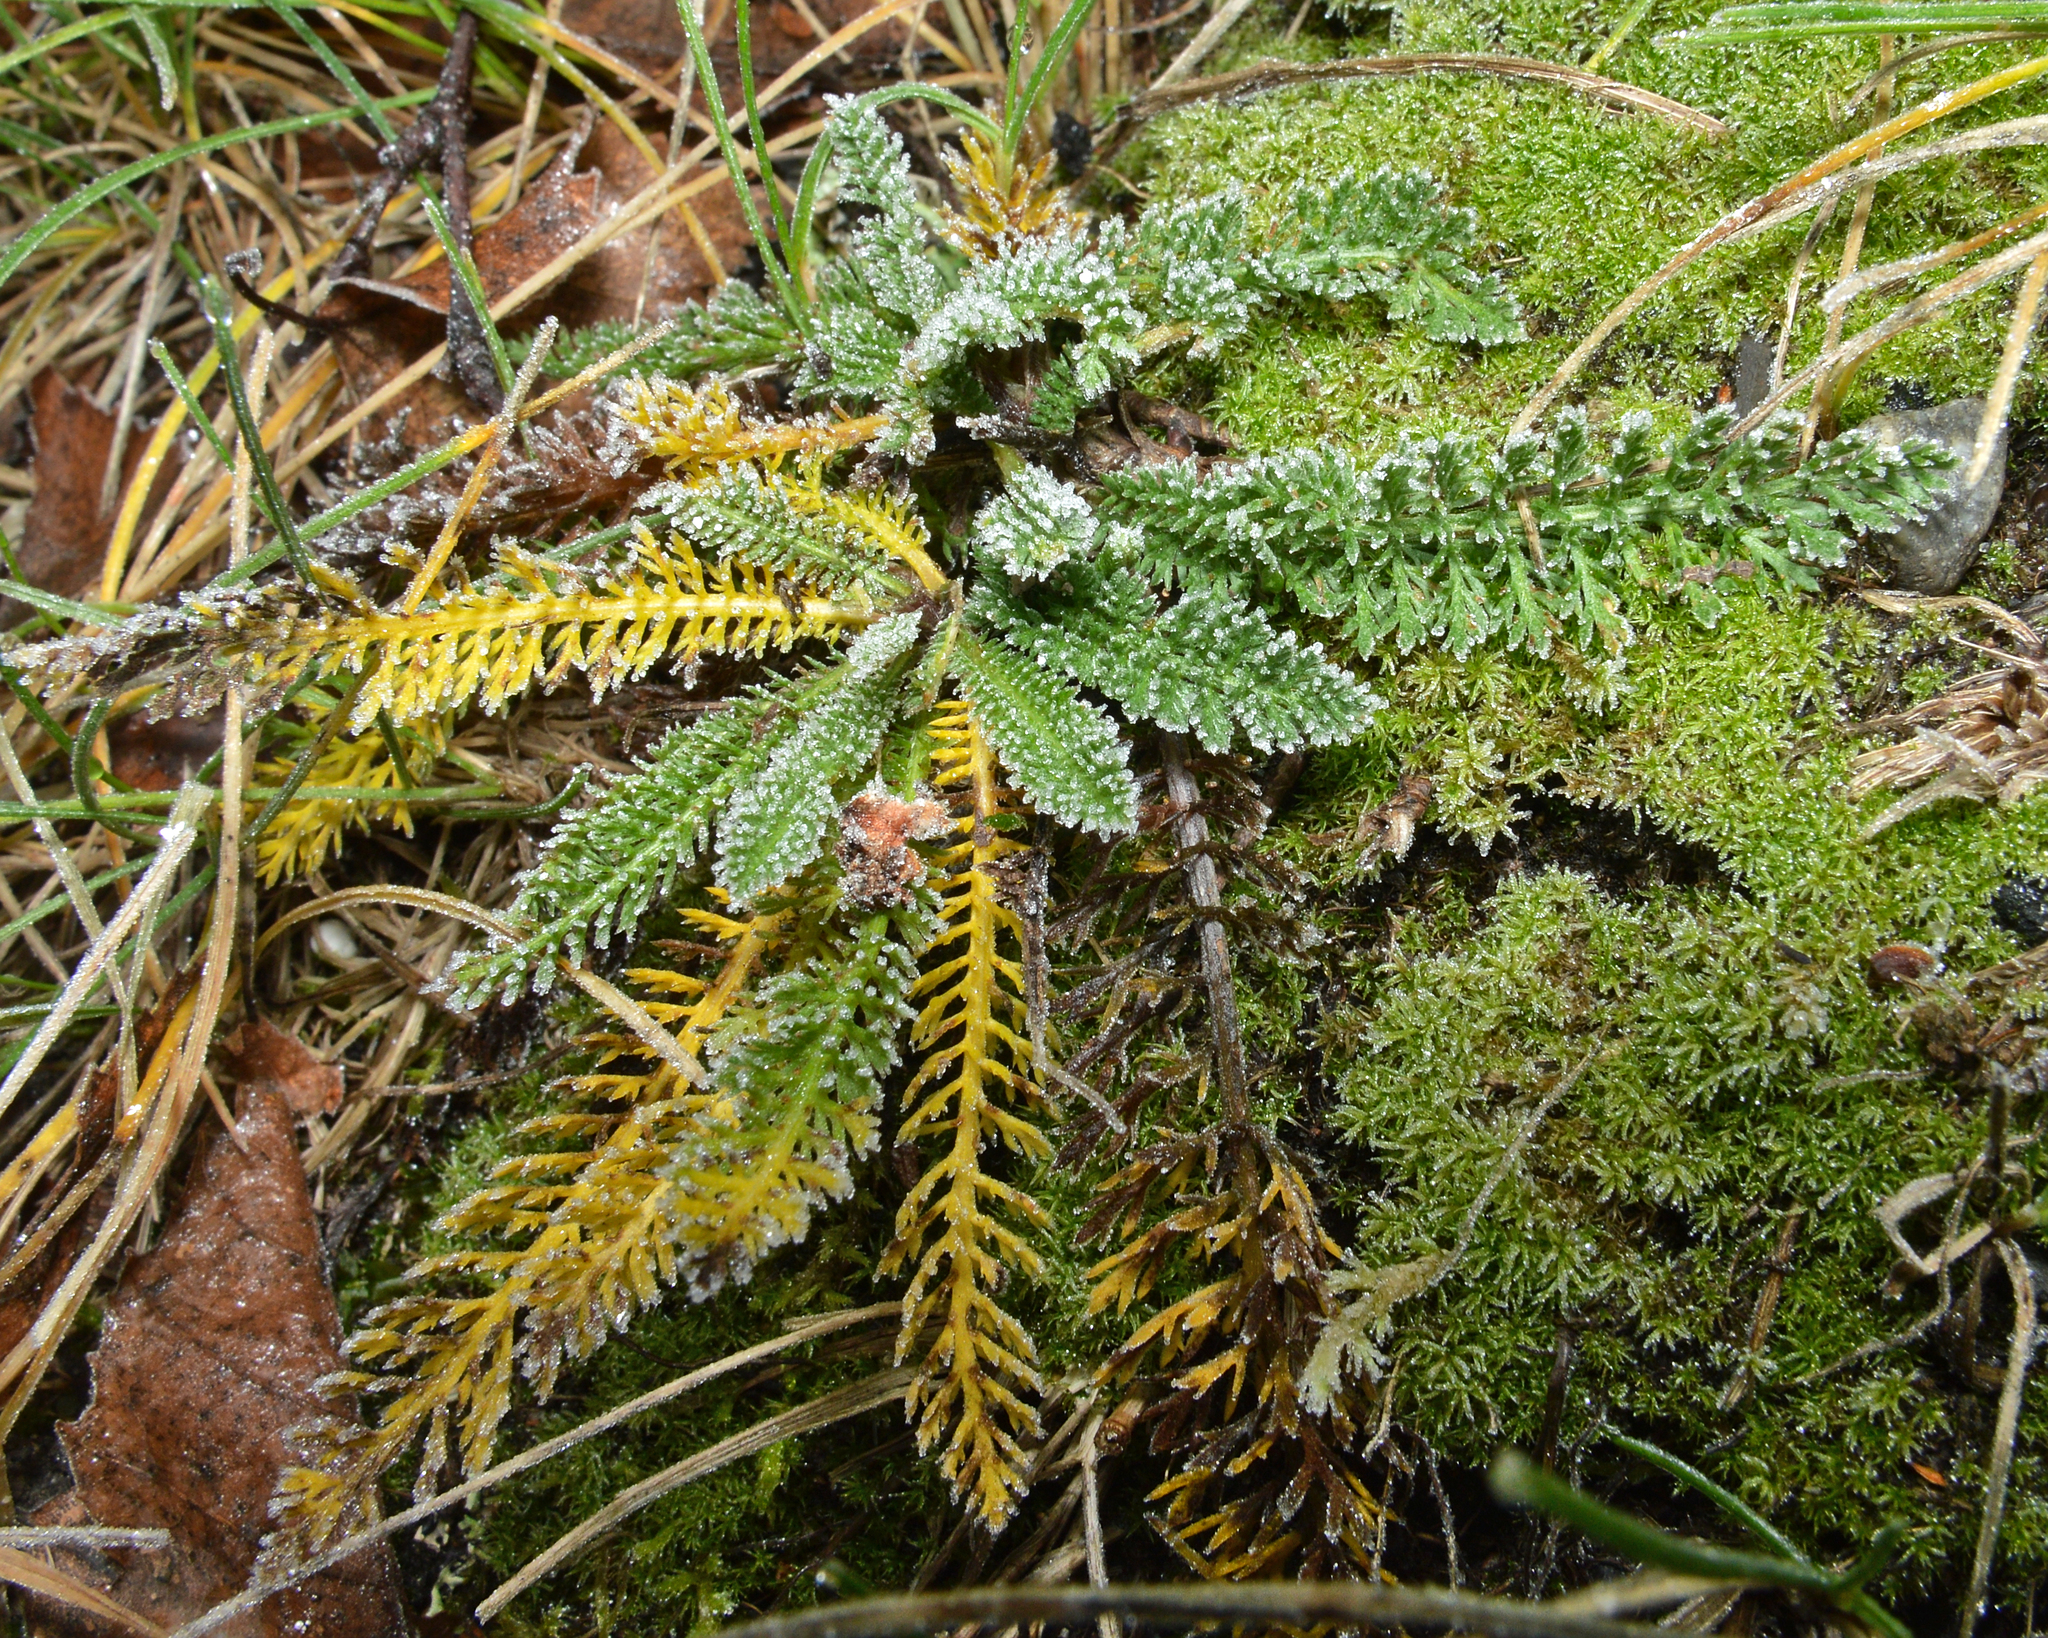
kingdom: Plantae
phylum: Tracheophyta
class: Magnoliopsida
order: Asterales
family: Asteraceae
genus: Achillea
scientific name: Achillea millefolium
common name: Yarrow
